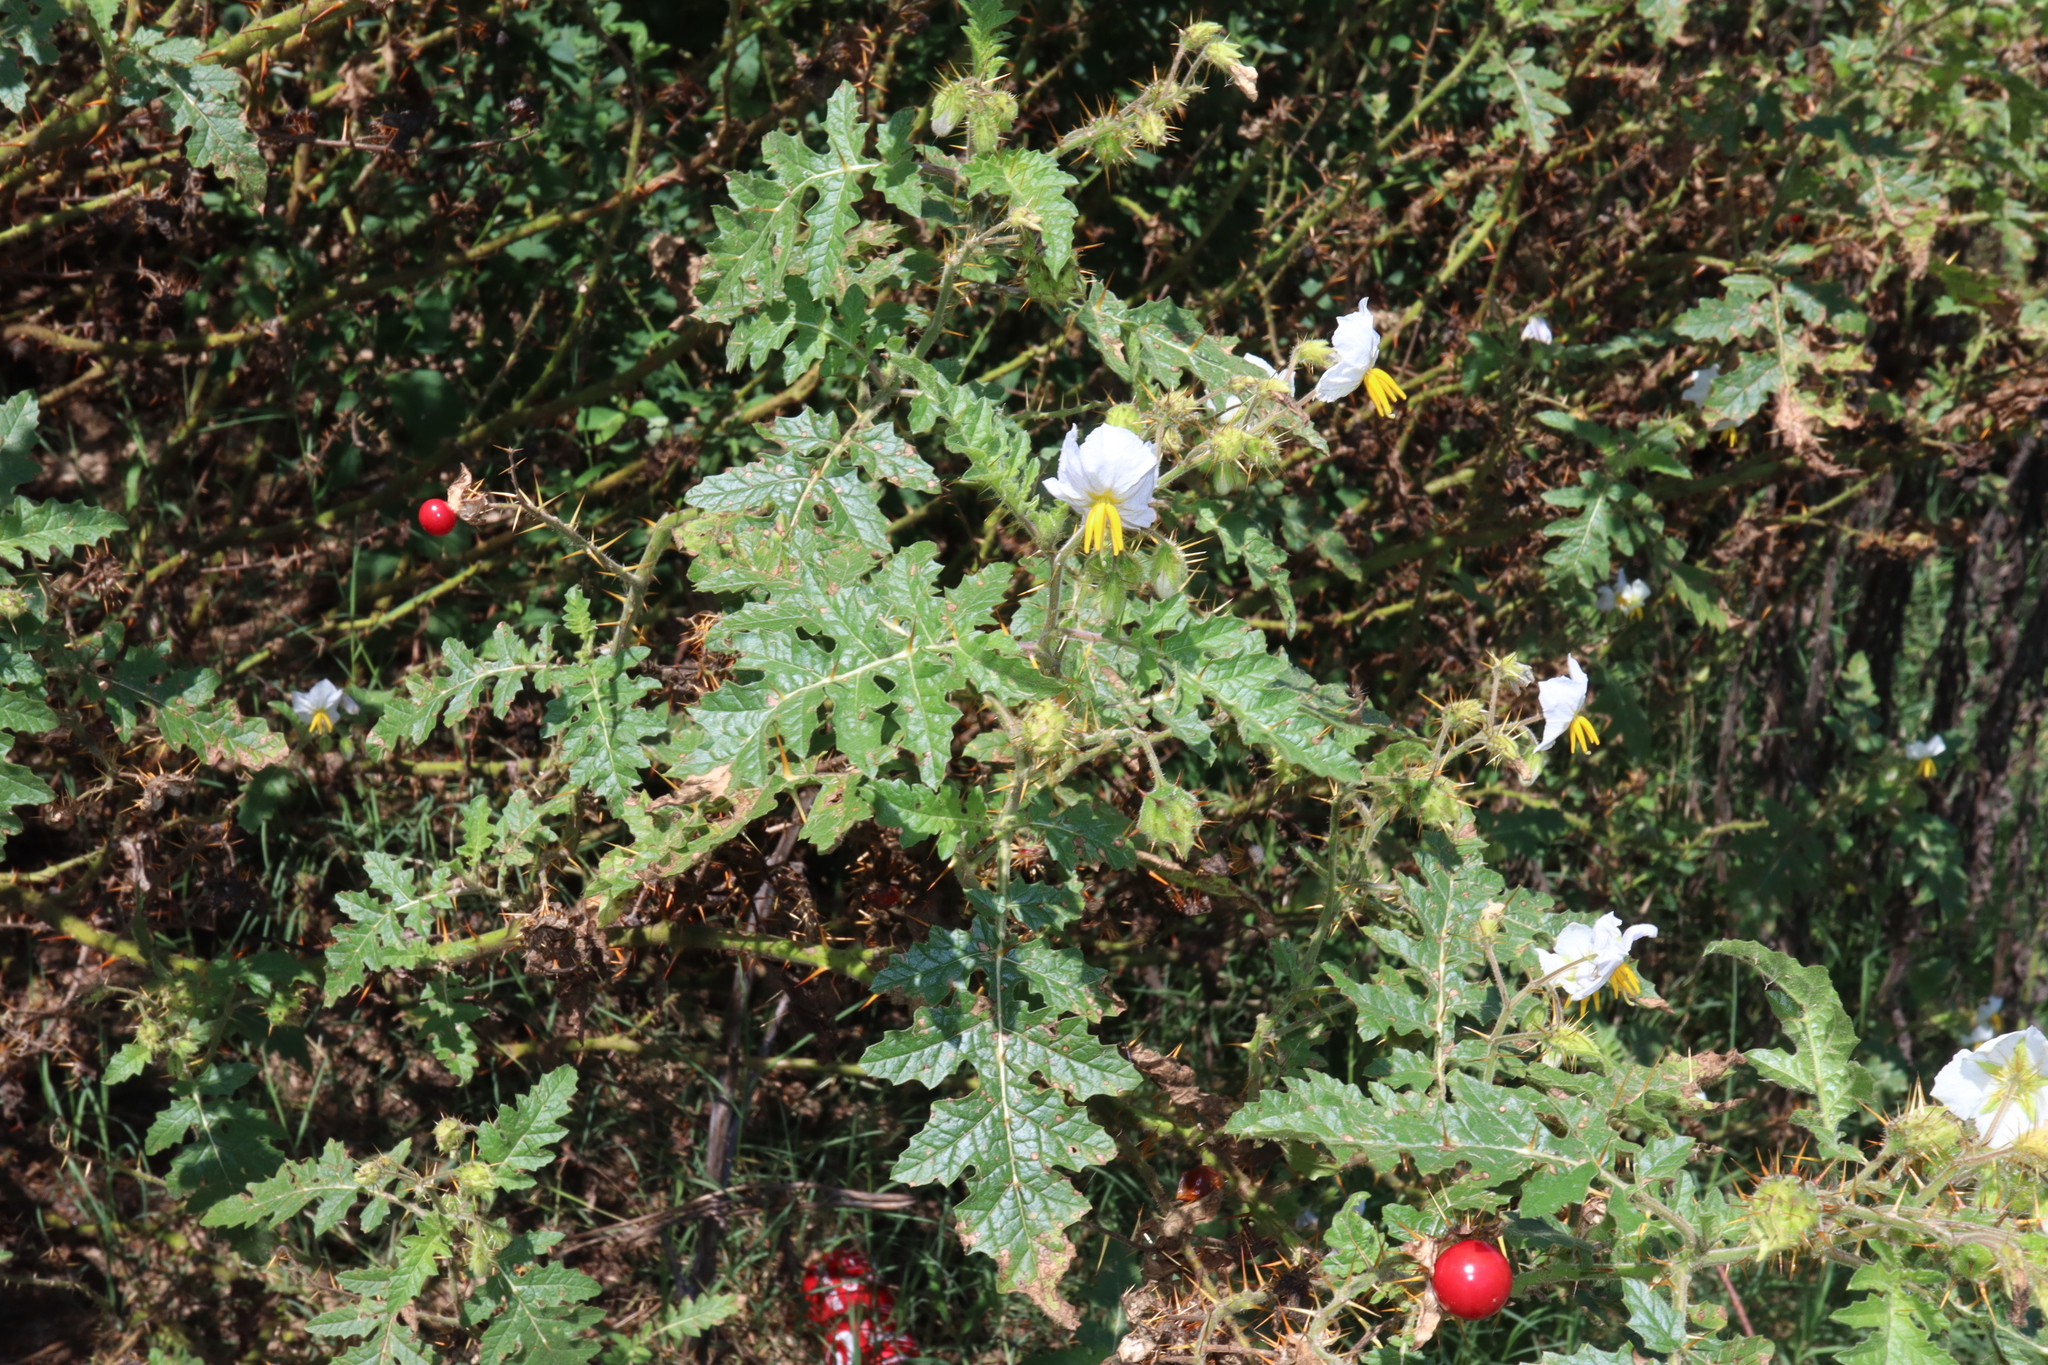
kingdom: Plantae
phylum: Tracheophyta
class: Magnoliopsida
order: Solanales
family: Solanaceae
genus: Solanum
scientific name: Solanum sisymbriifolium
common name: Red buffalo-bur
